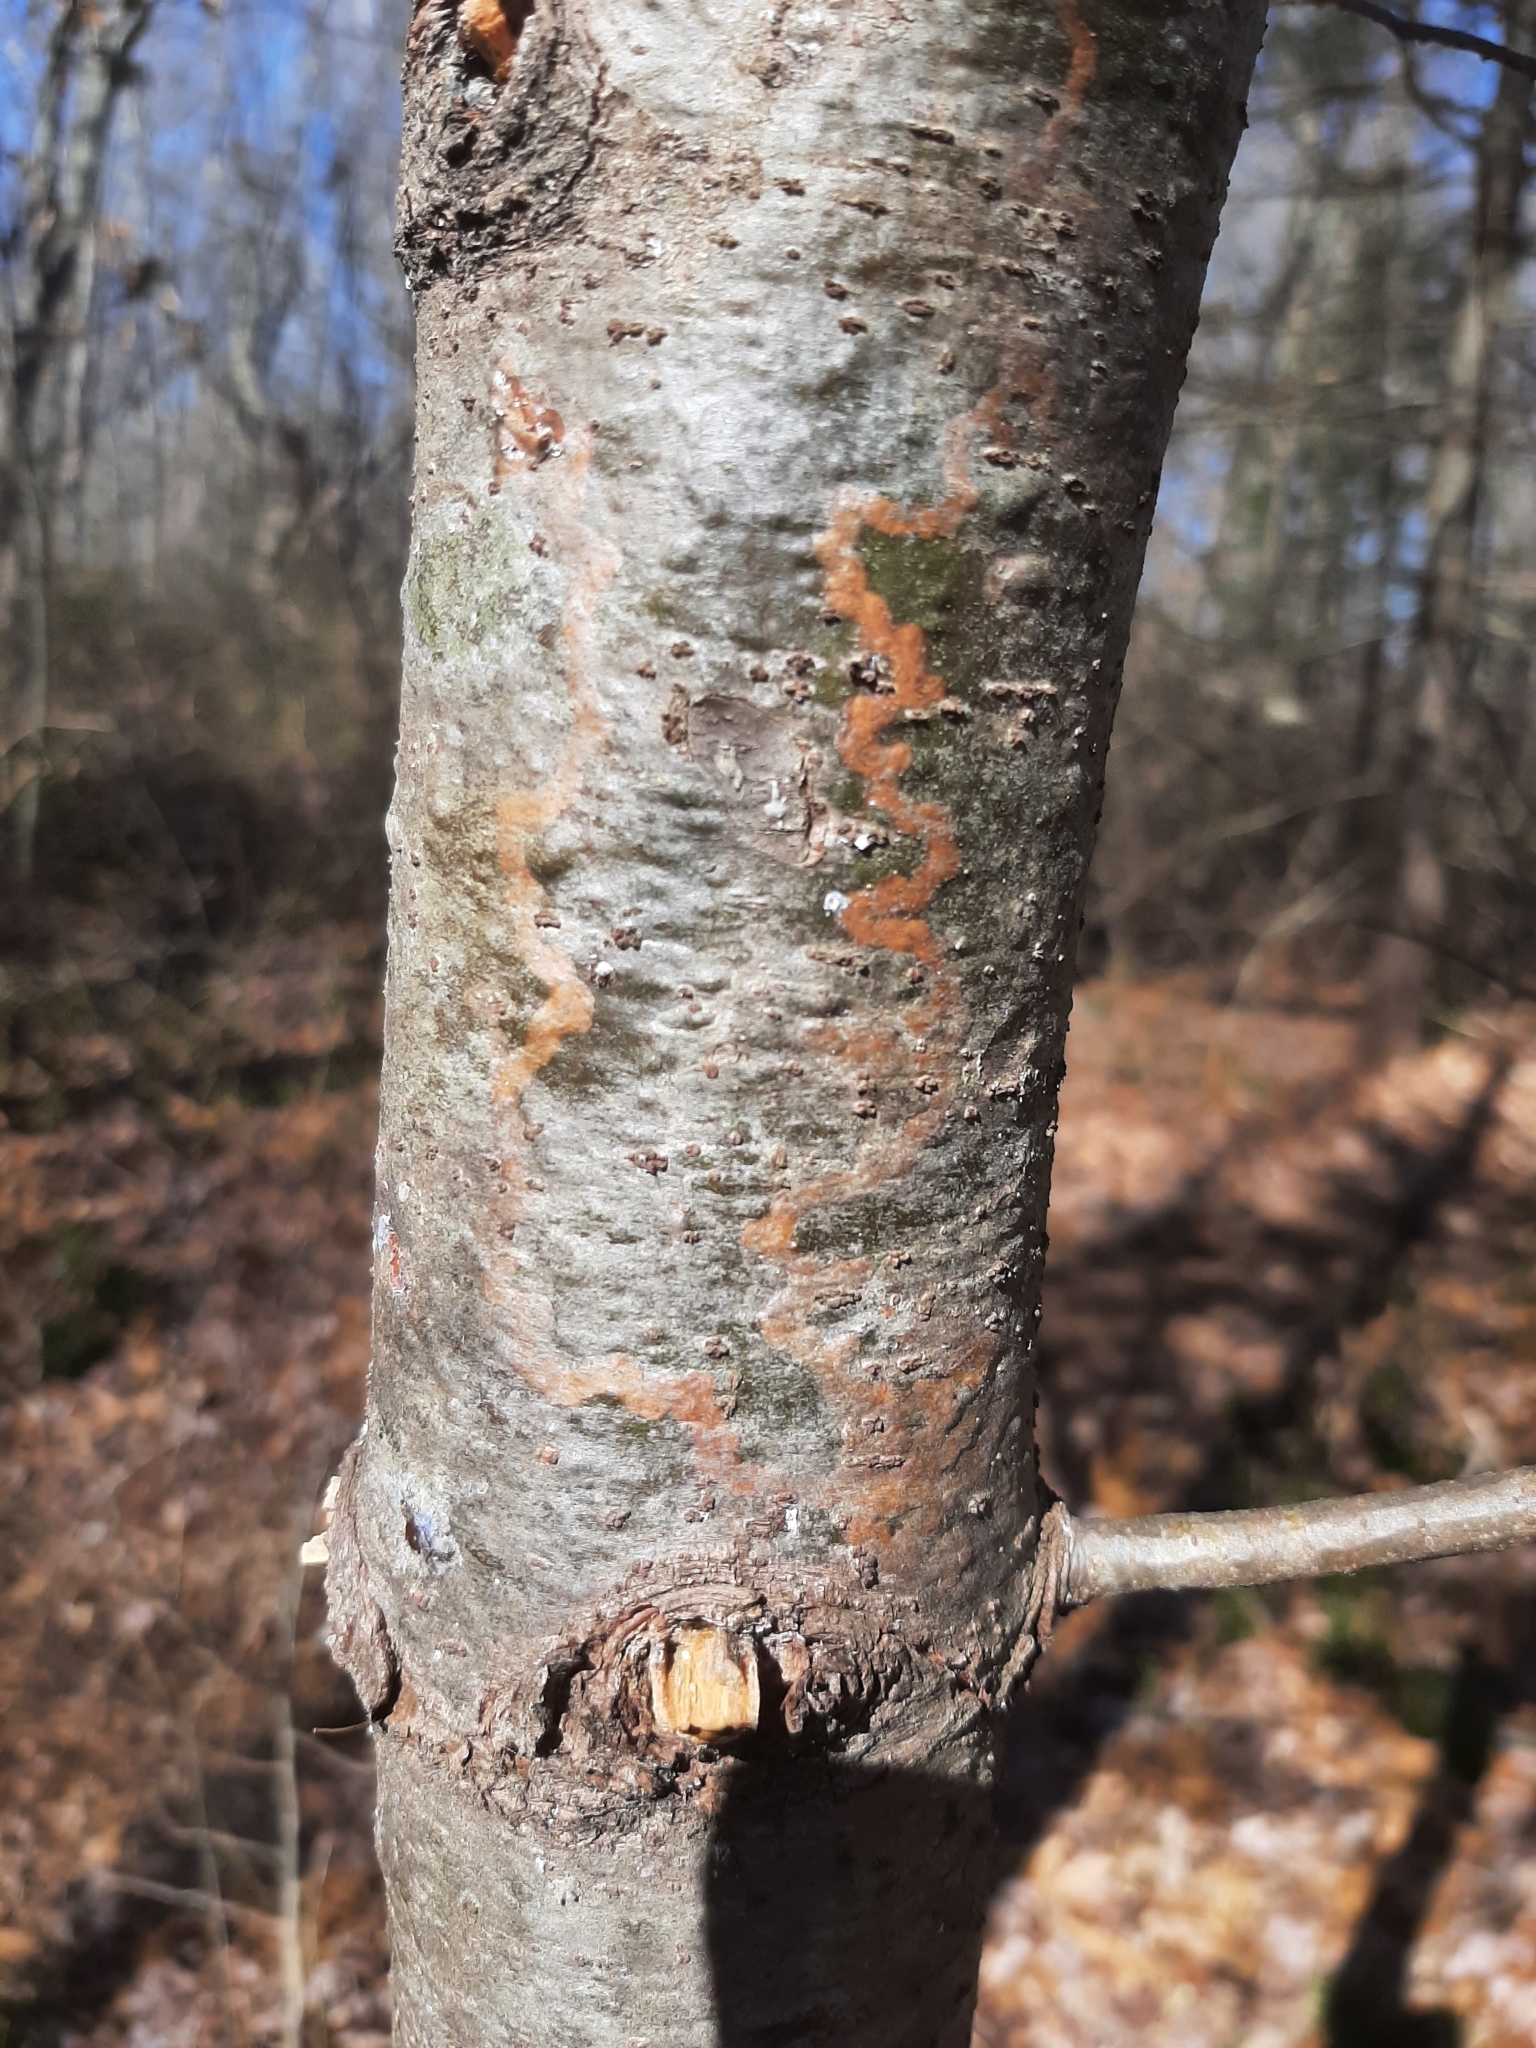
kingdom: Animalia
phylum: Arthropoda
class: Insecta
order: Lepidoptera
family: Gracillariidae
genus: Marmara
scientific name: Marmara fasciella
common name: White pine barkminer moth
